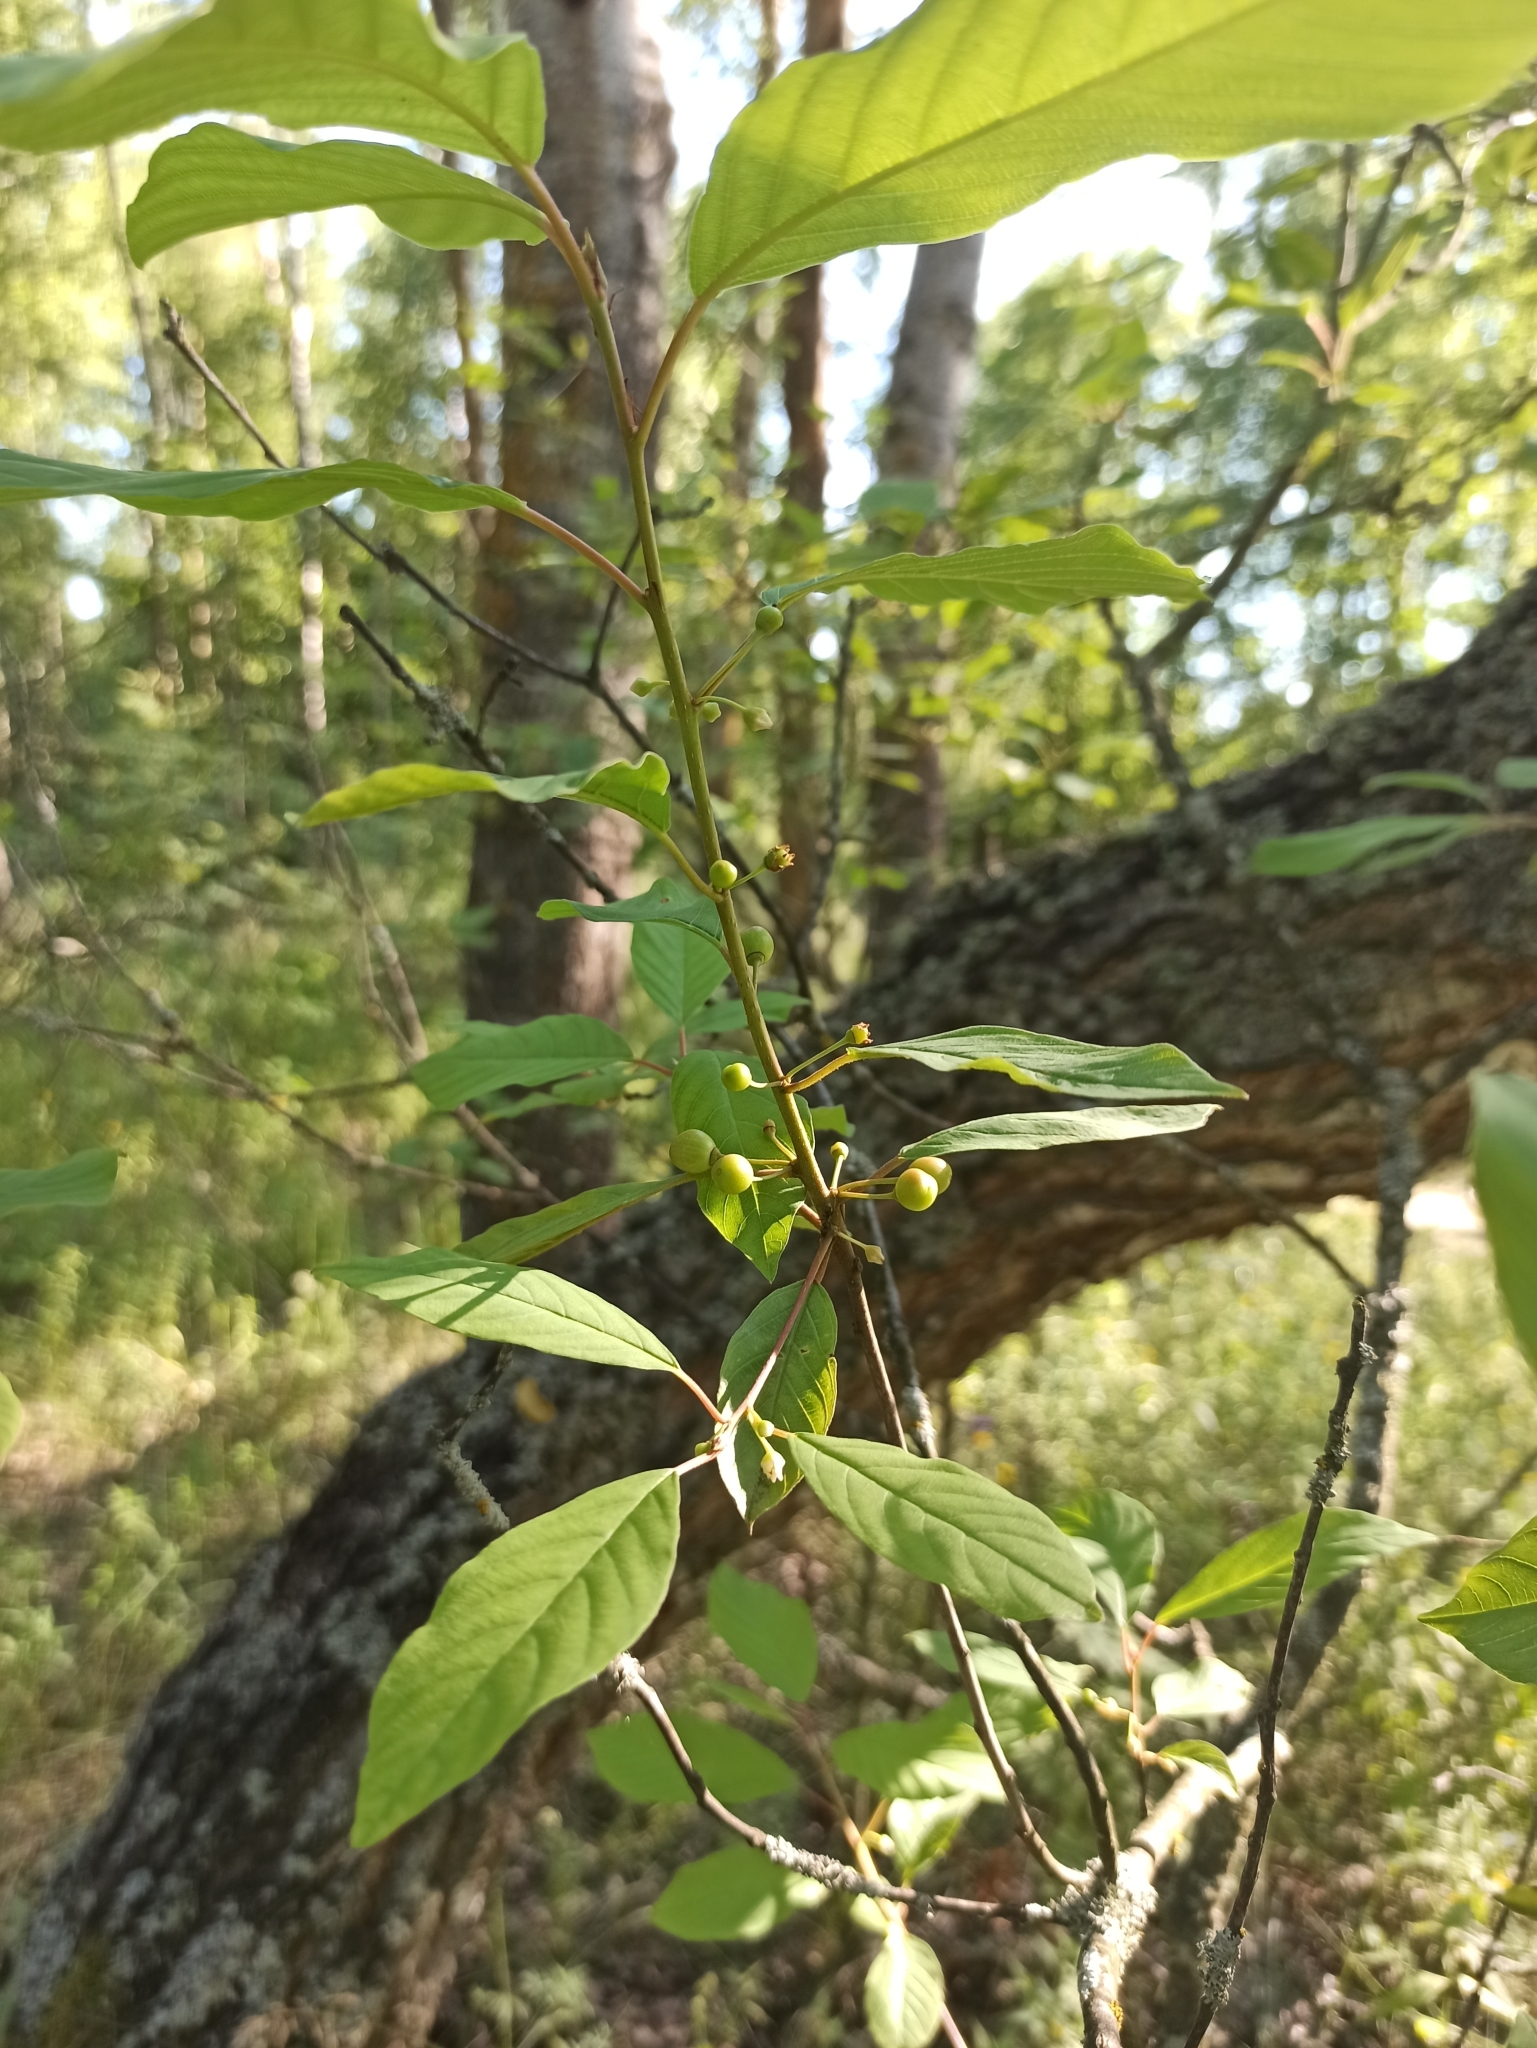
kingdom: Plantae
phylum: Tracheophyta
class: Magnoliopsida
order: Rosales
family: Rhamnaceae
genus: Frangula
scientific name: Frangula alnus
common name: Alder buckthorn
